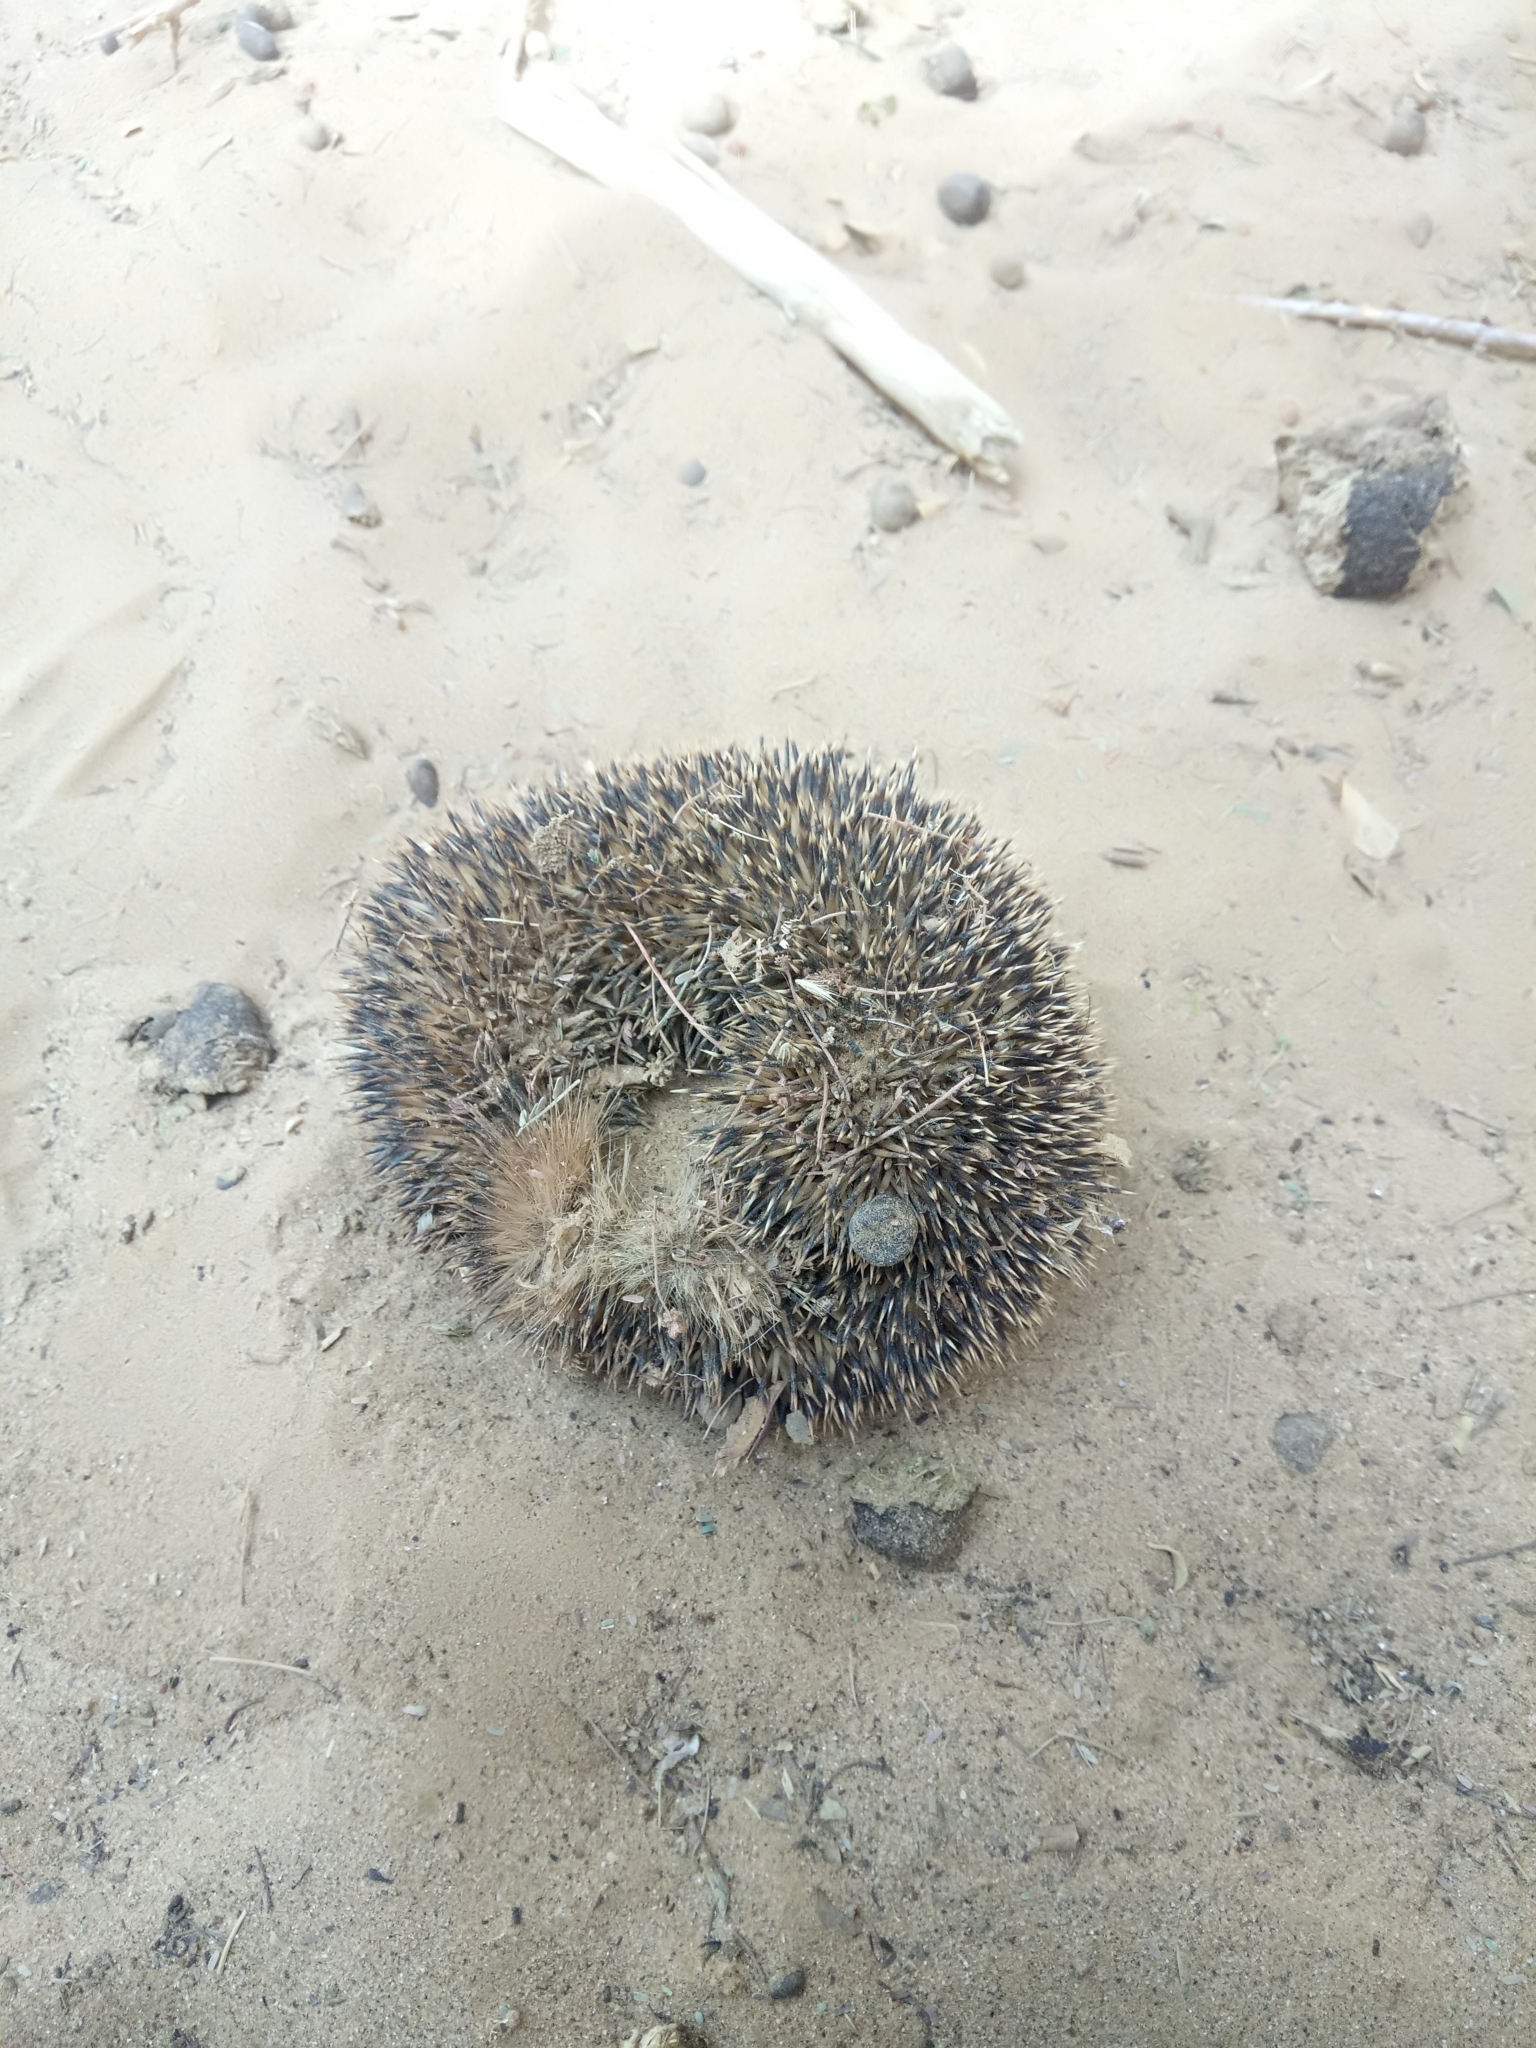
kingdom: Animalia
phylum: Chordata
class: Mammalia
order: Erinaceomorpha
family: Erinaceidae
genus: Paraechinus
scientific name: Paraechinus aethiopicus
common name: Desert hedgehog
